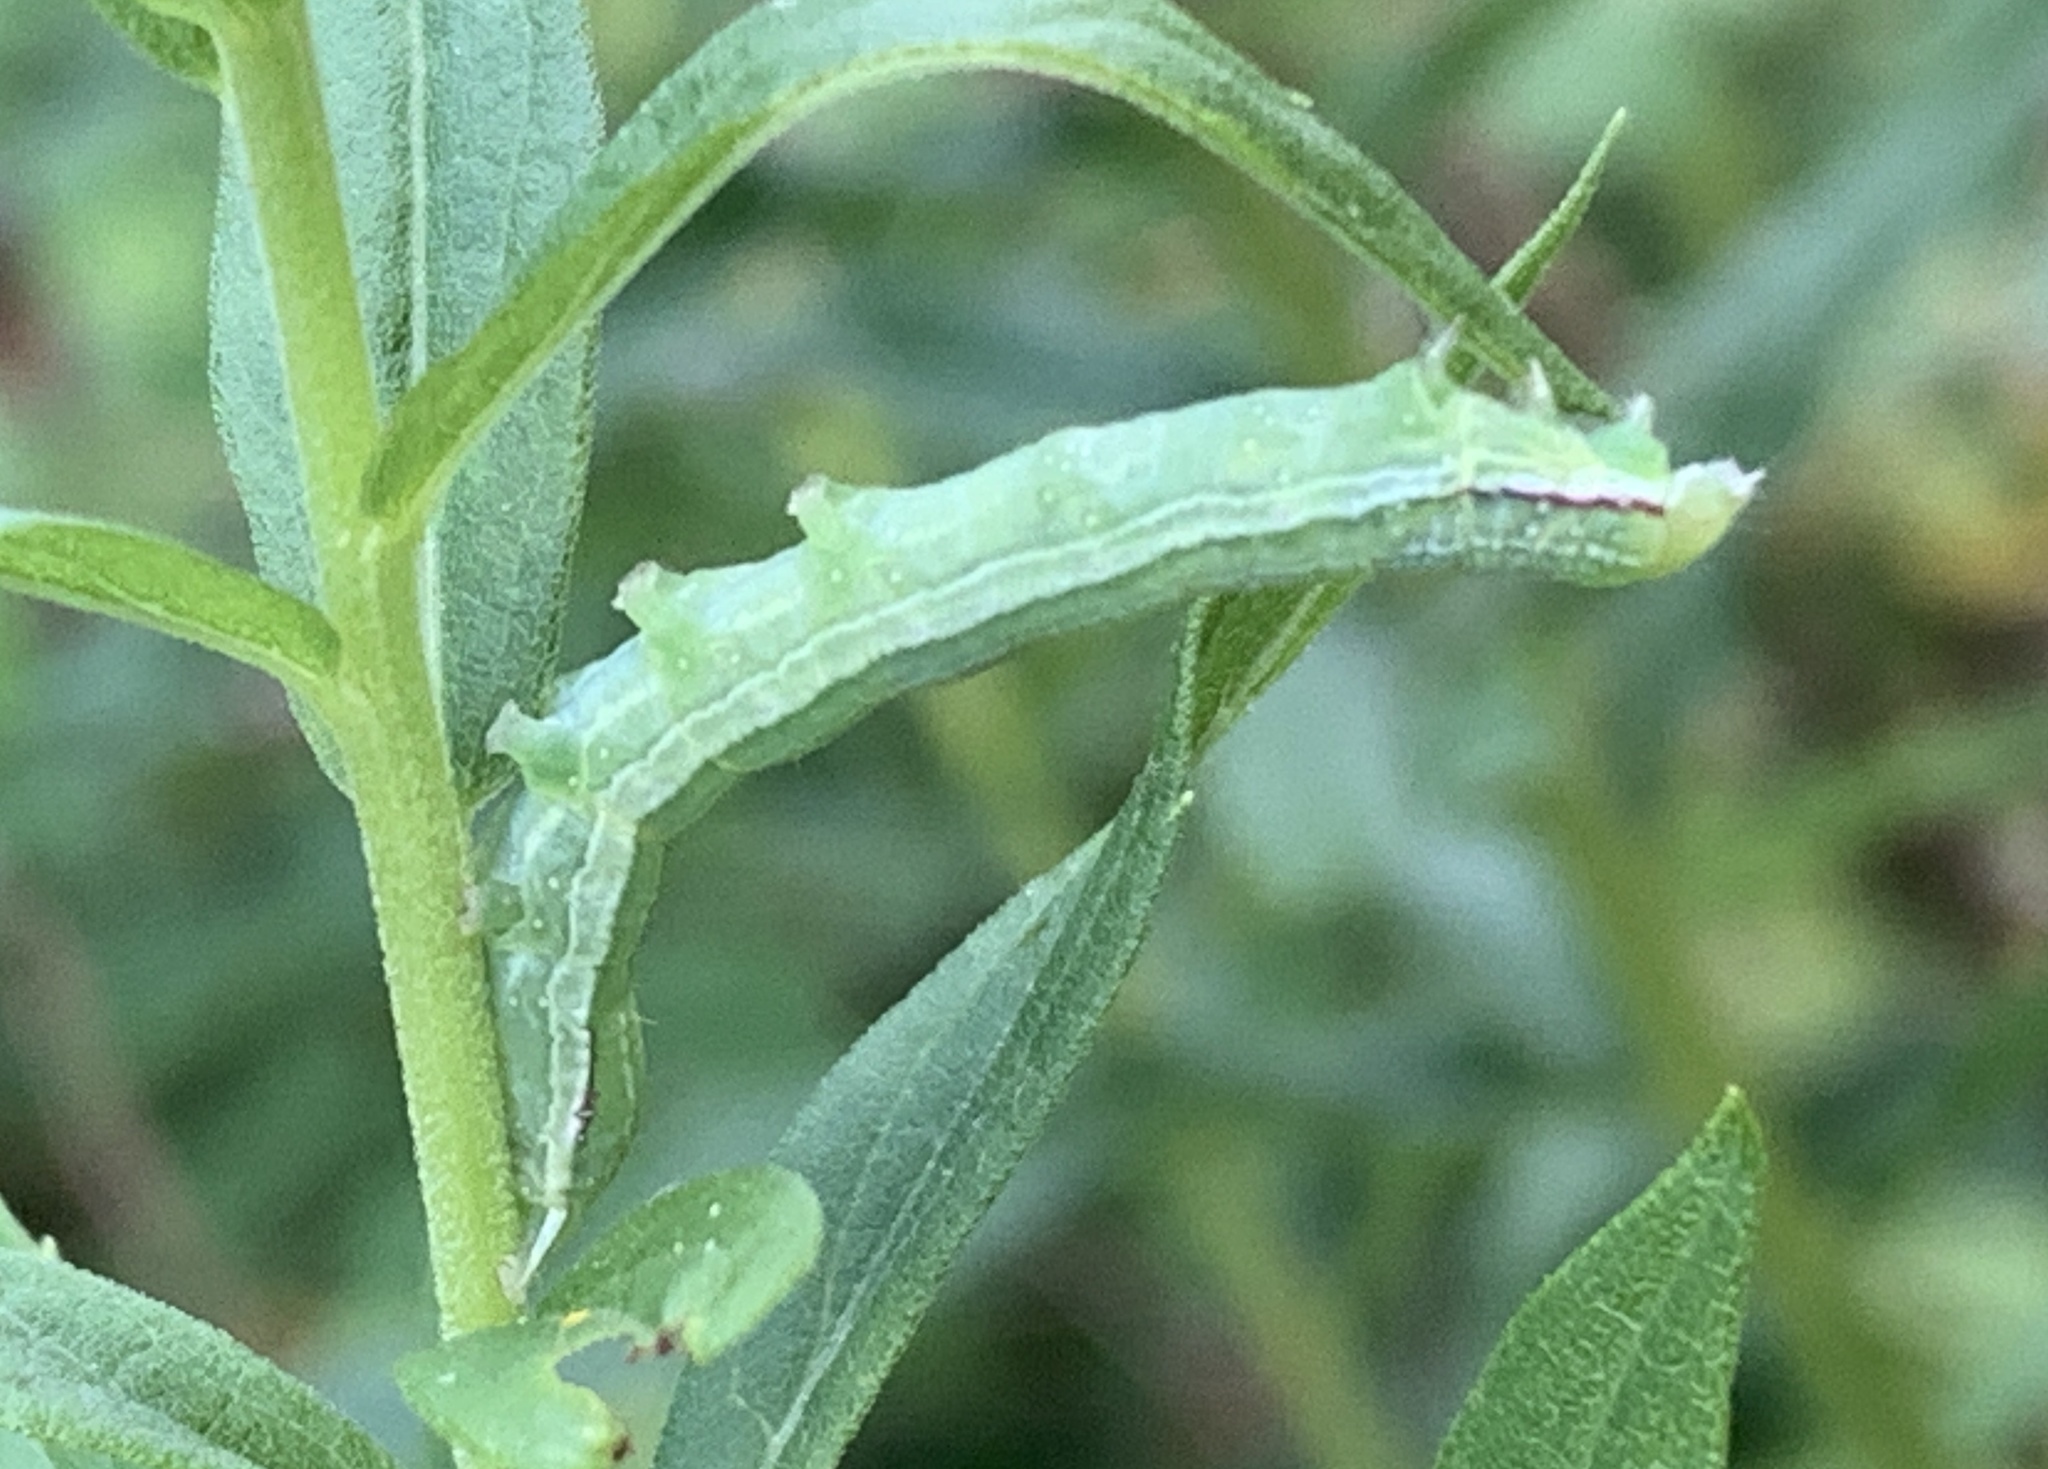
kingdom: Animalia
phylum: Arthropoda
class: Insecta
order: Lepidoptera
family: Noctuidae
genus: Leuconycta
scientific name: Leuconycta diphteroides
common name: Green leuconycta moth
